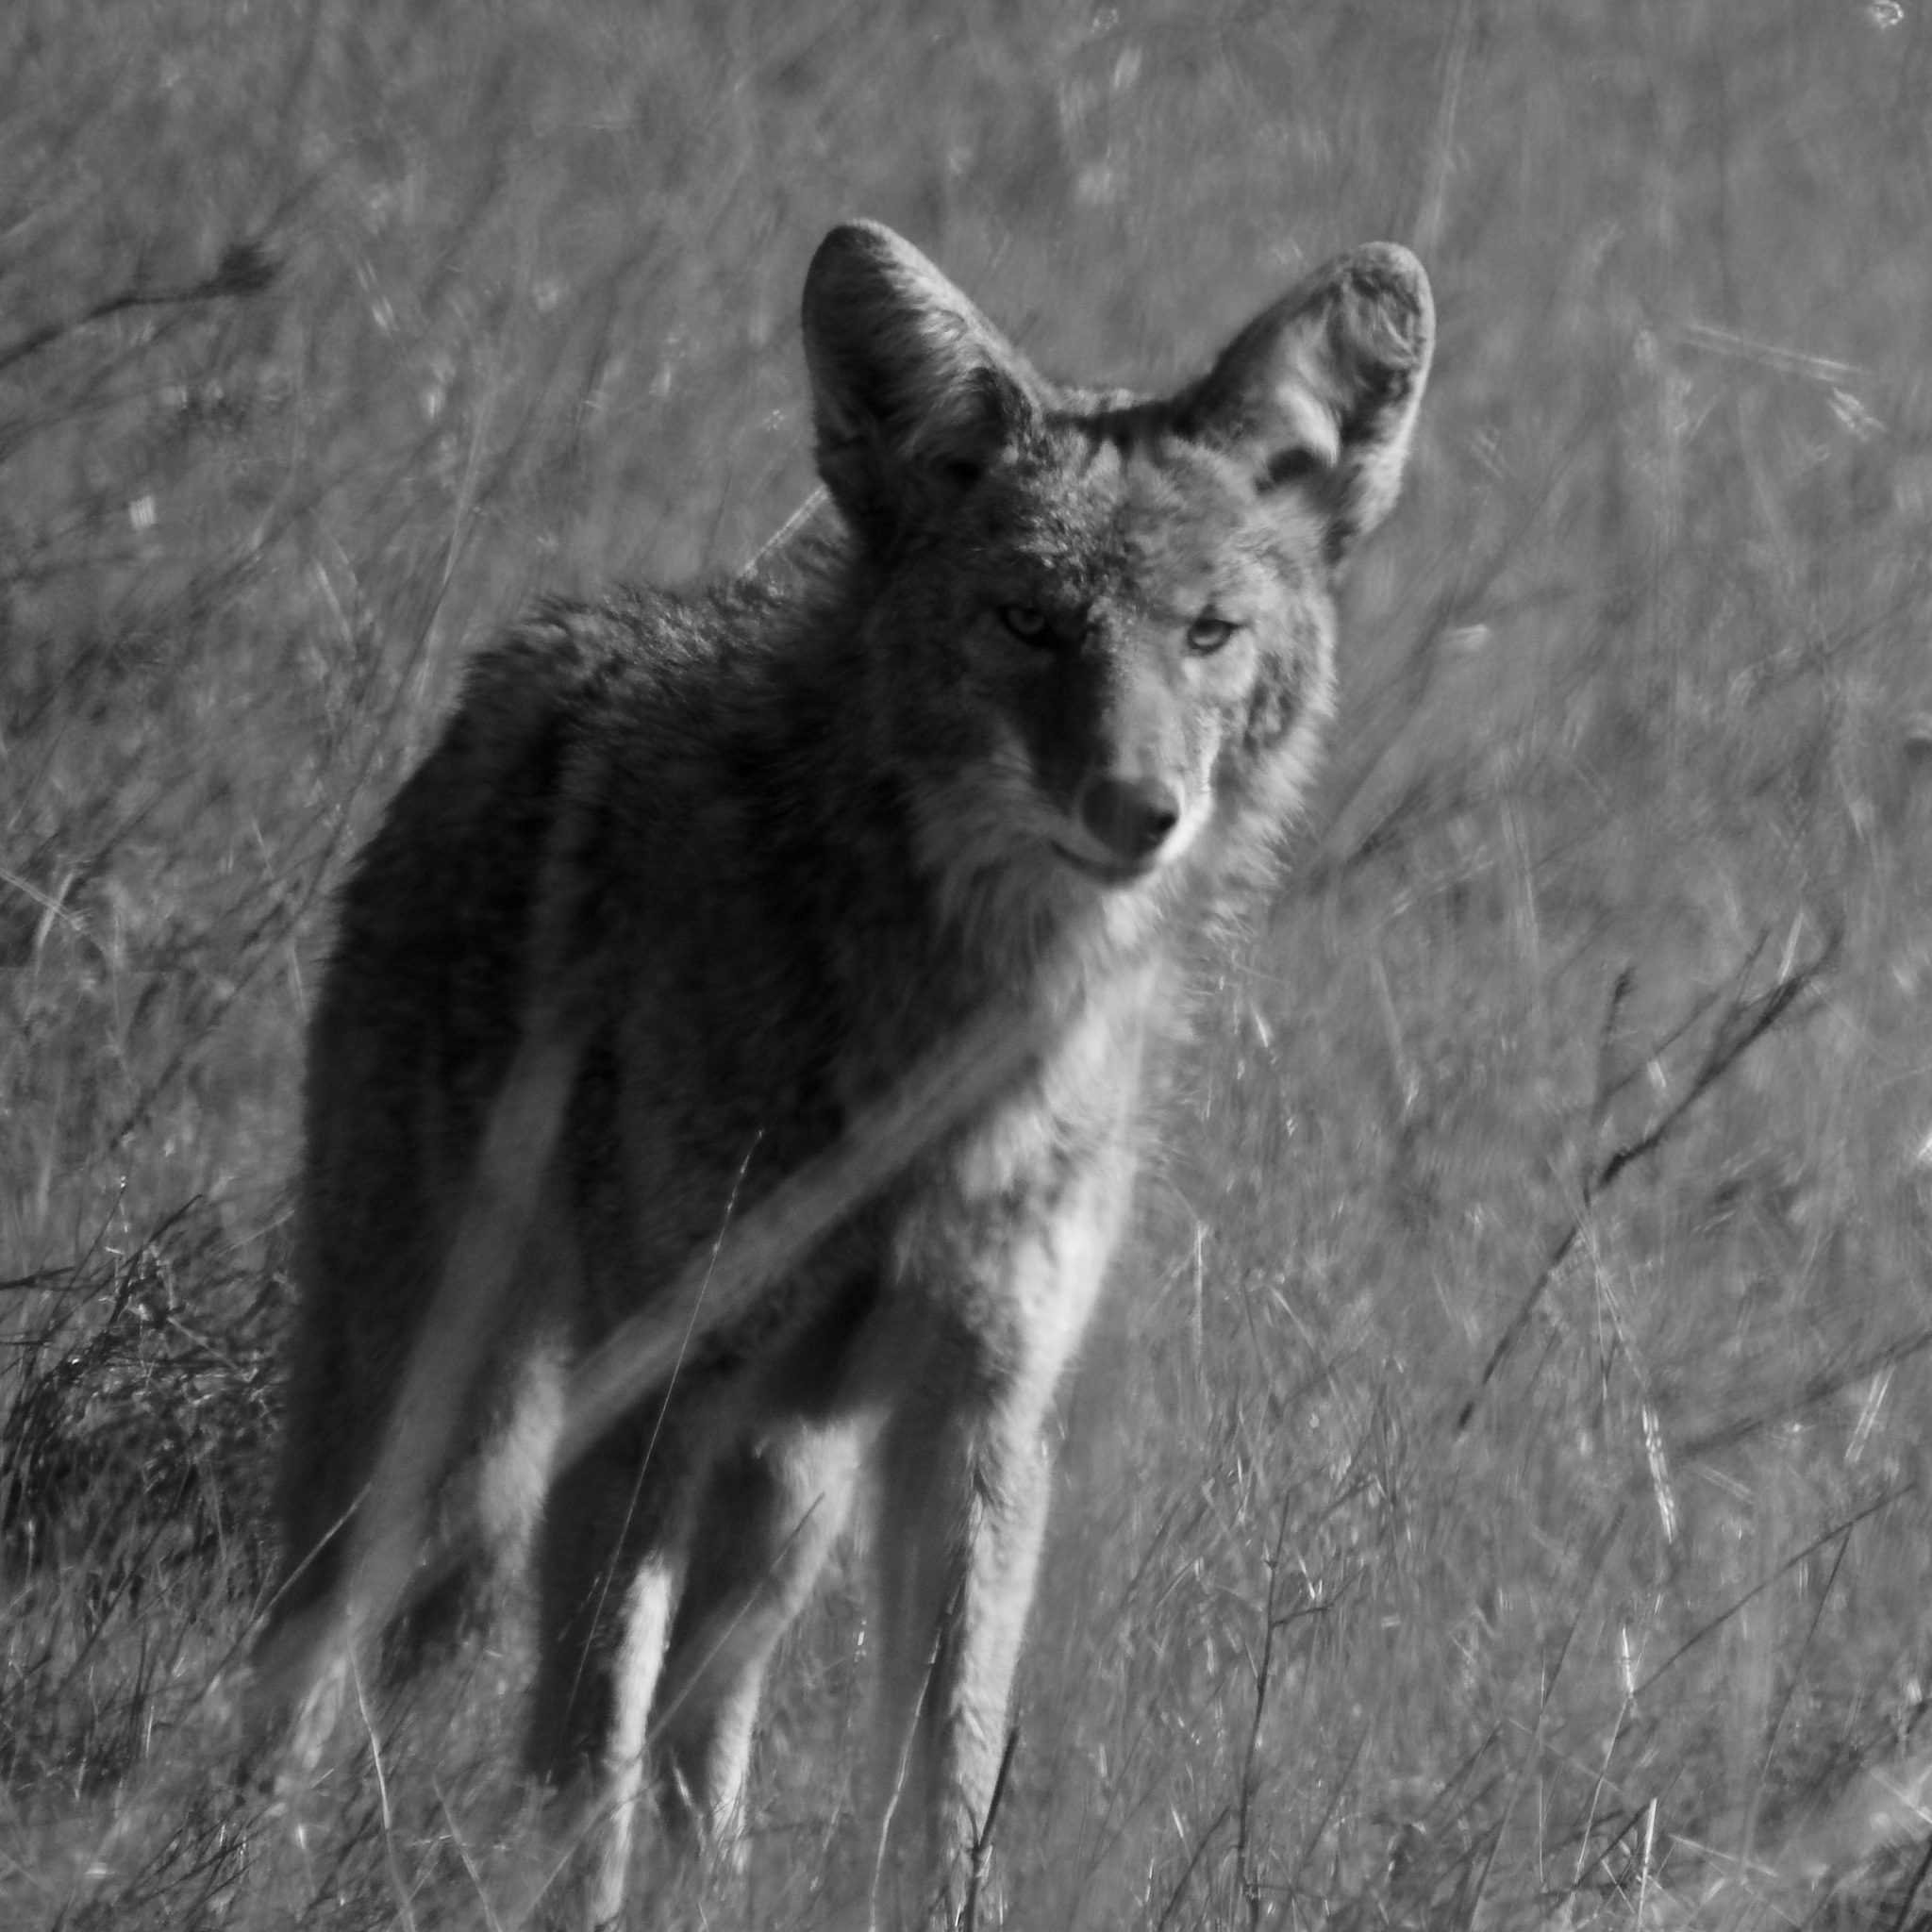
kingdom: Animalia
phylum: Chordata
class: Mammalia
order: Carnivora
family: Canidae
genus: Canis
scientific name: Canis latrans
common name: Coyote
